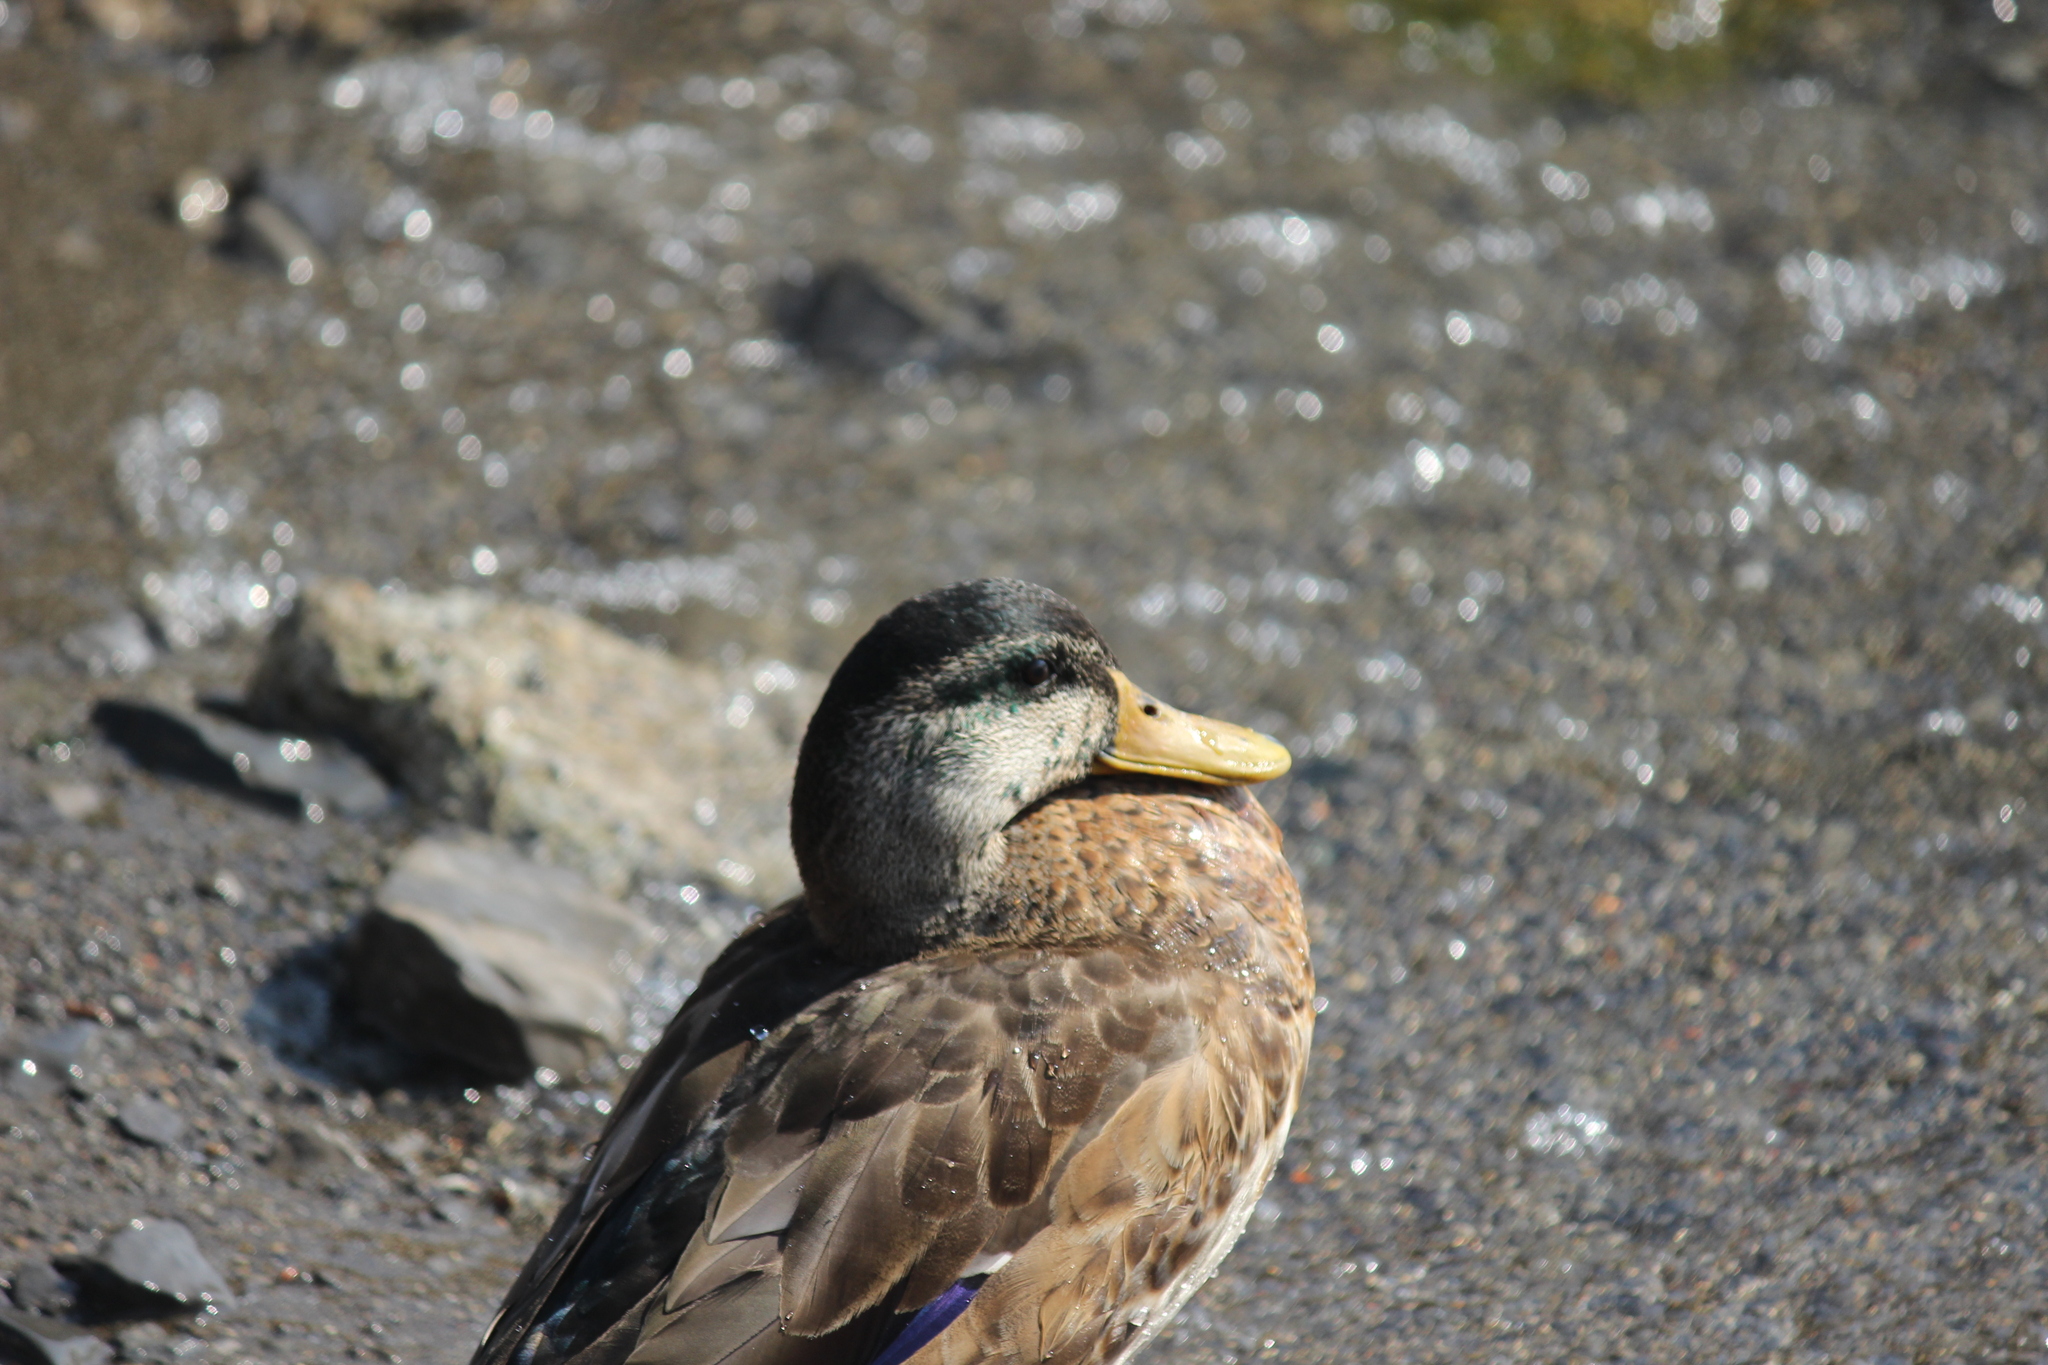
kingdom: Animalia
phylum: Chordata
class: Aves
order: Anseriformes
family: Anatidae
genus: Anas
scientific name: Anas platyrhynchos
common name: Mallard
